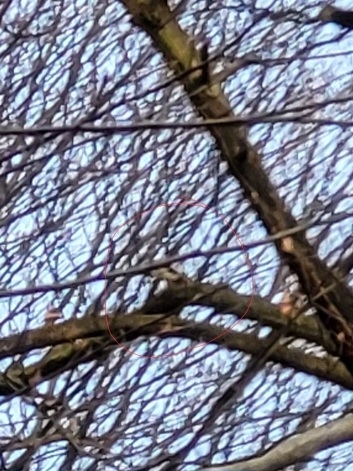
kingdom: Animalia
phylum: Chordata
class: Aves
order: Piciformes
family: Picidae
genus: Dendrocopos
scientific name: Dendrocopos major
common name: Great spotted woodpecker
